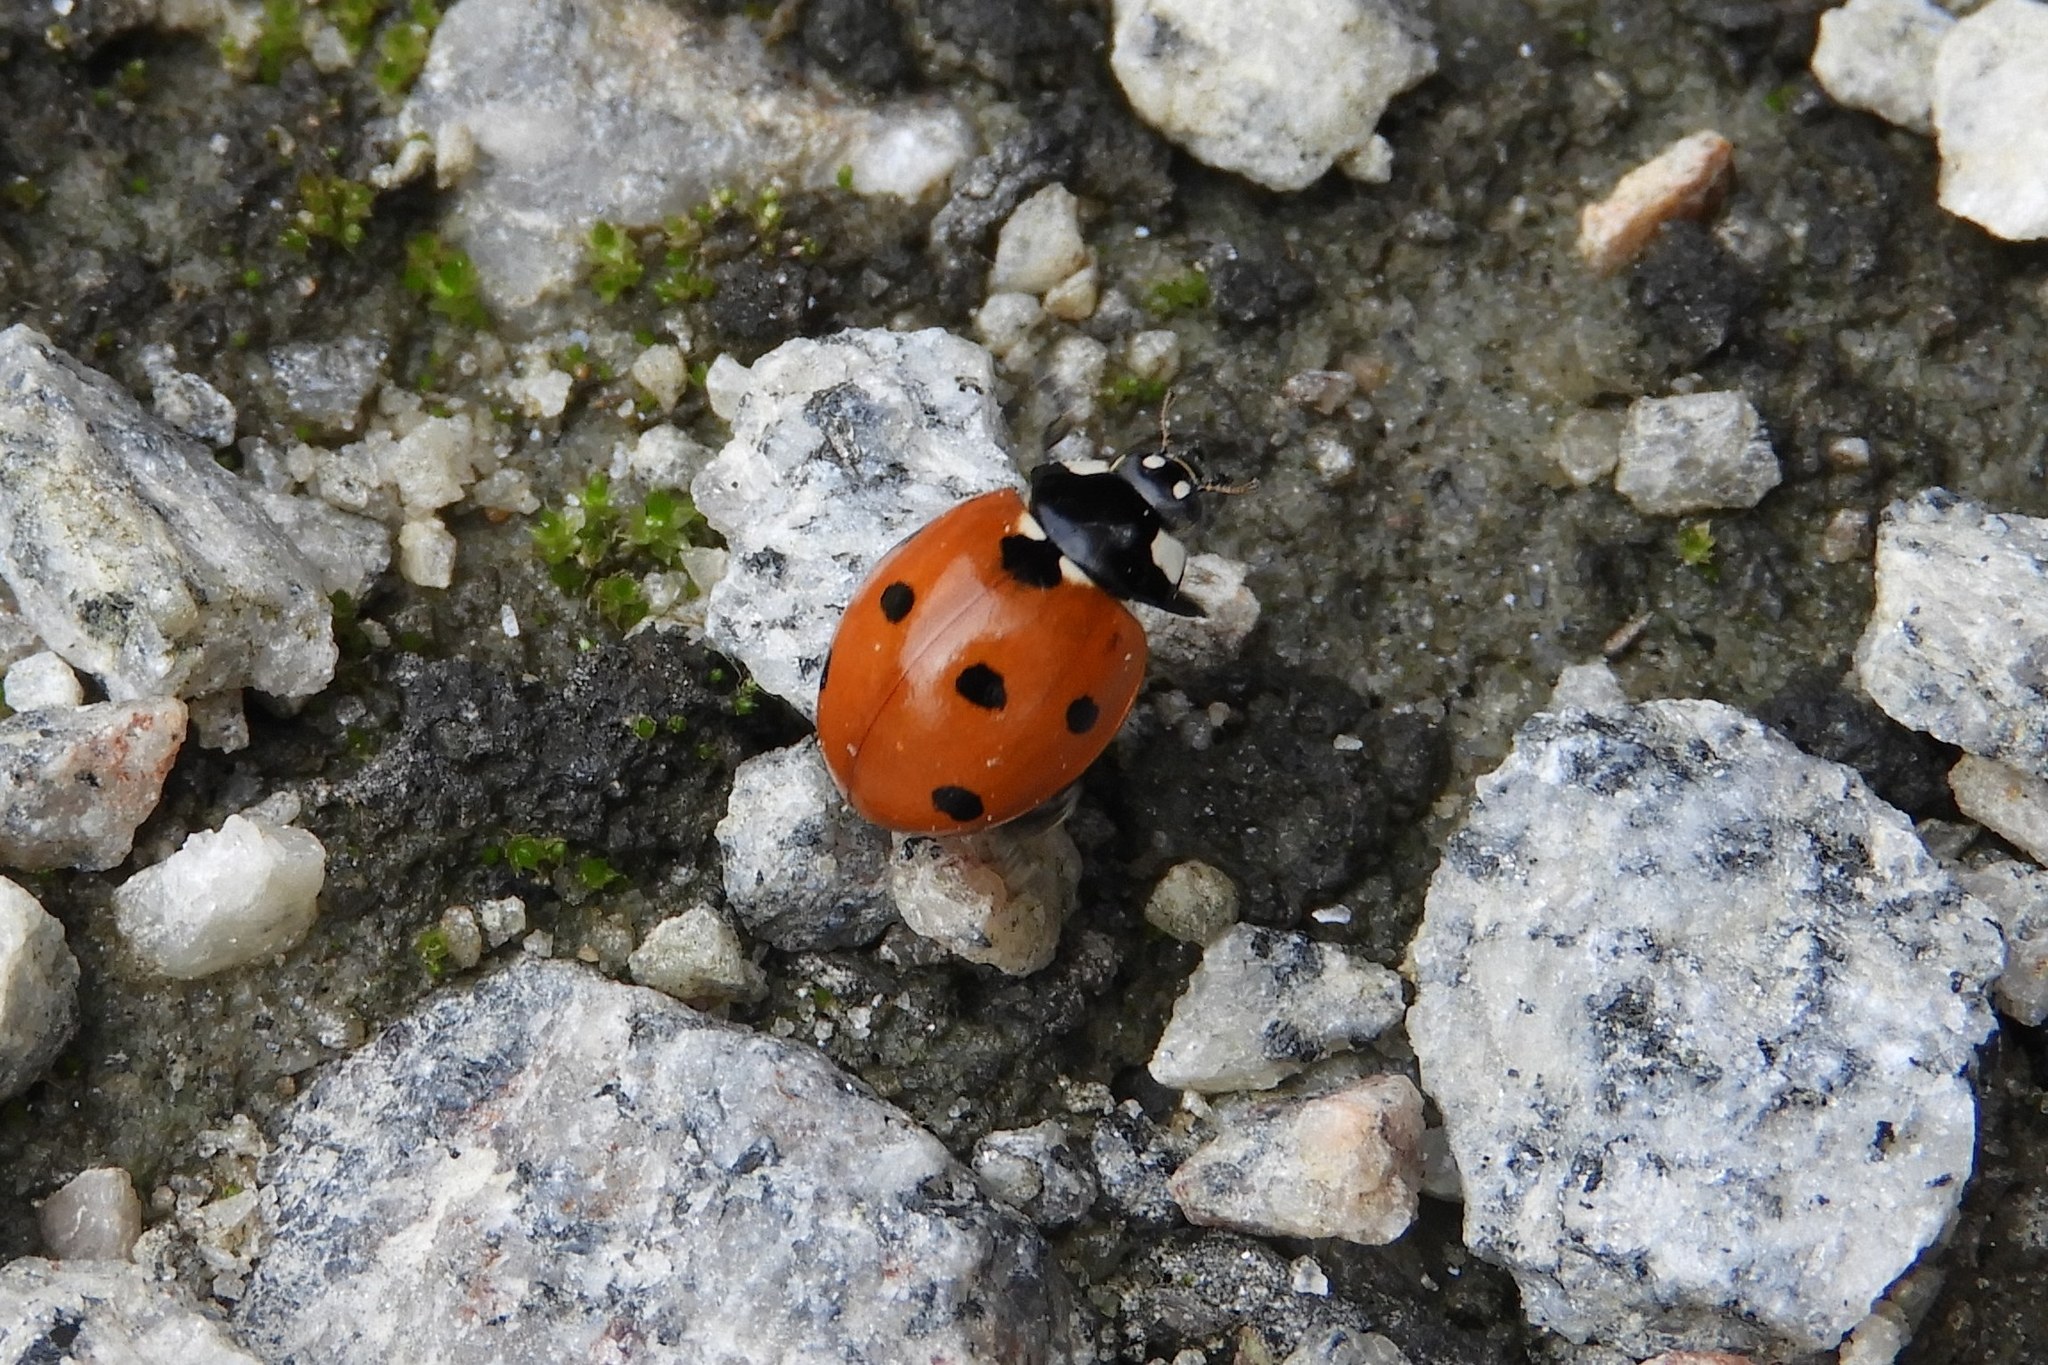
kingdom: Animalia
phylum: Arthropoda
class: Insecta
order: Coleoptera
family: Coccinellidae
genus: Coccinella
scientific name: Coccinella septempunctata
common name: Sevenspotted lady beetle
